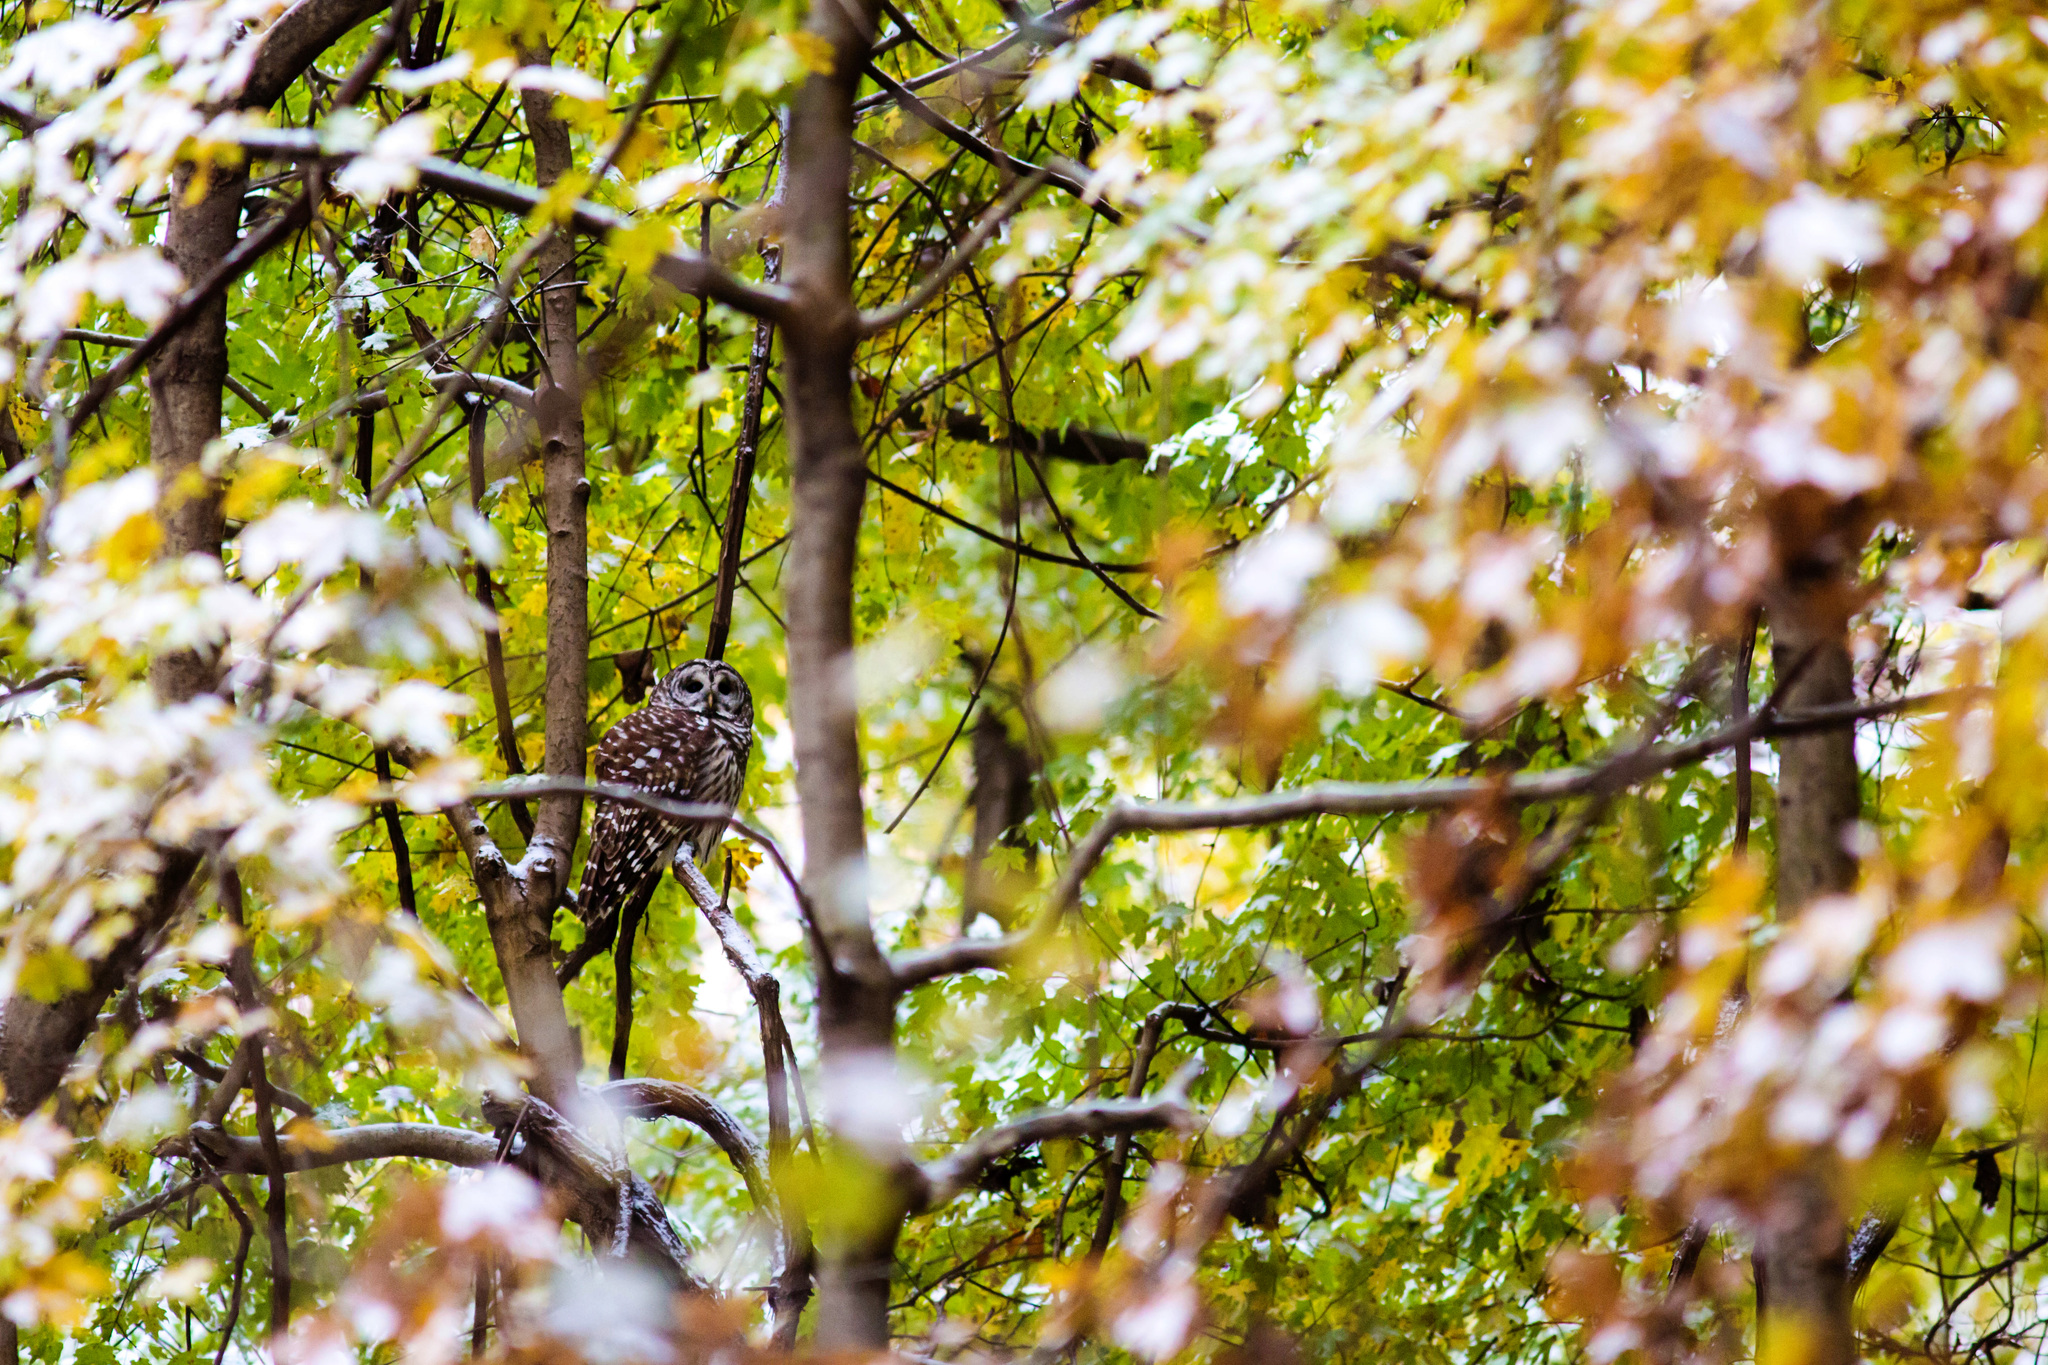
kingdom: Animalia
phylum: Chordata
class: Aves
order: Strigiformes
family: Strigidae
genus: Strix
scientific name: Strix varia
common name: Barred owl
